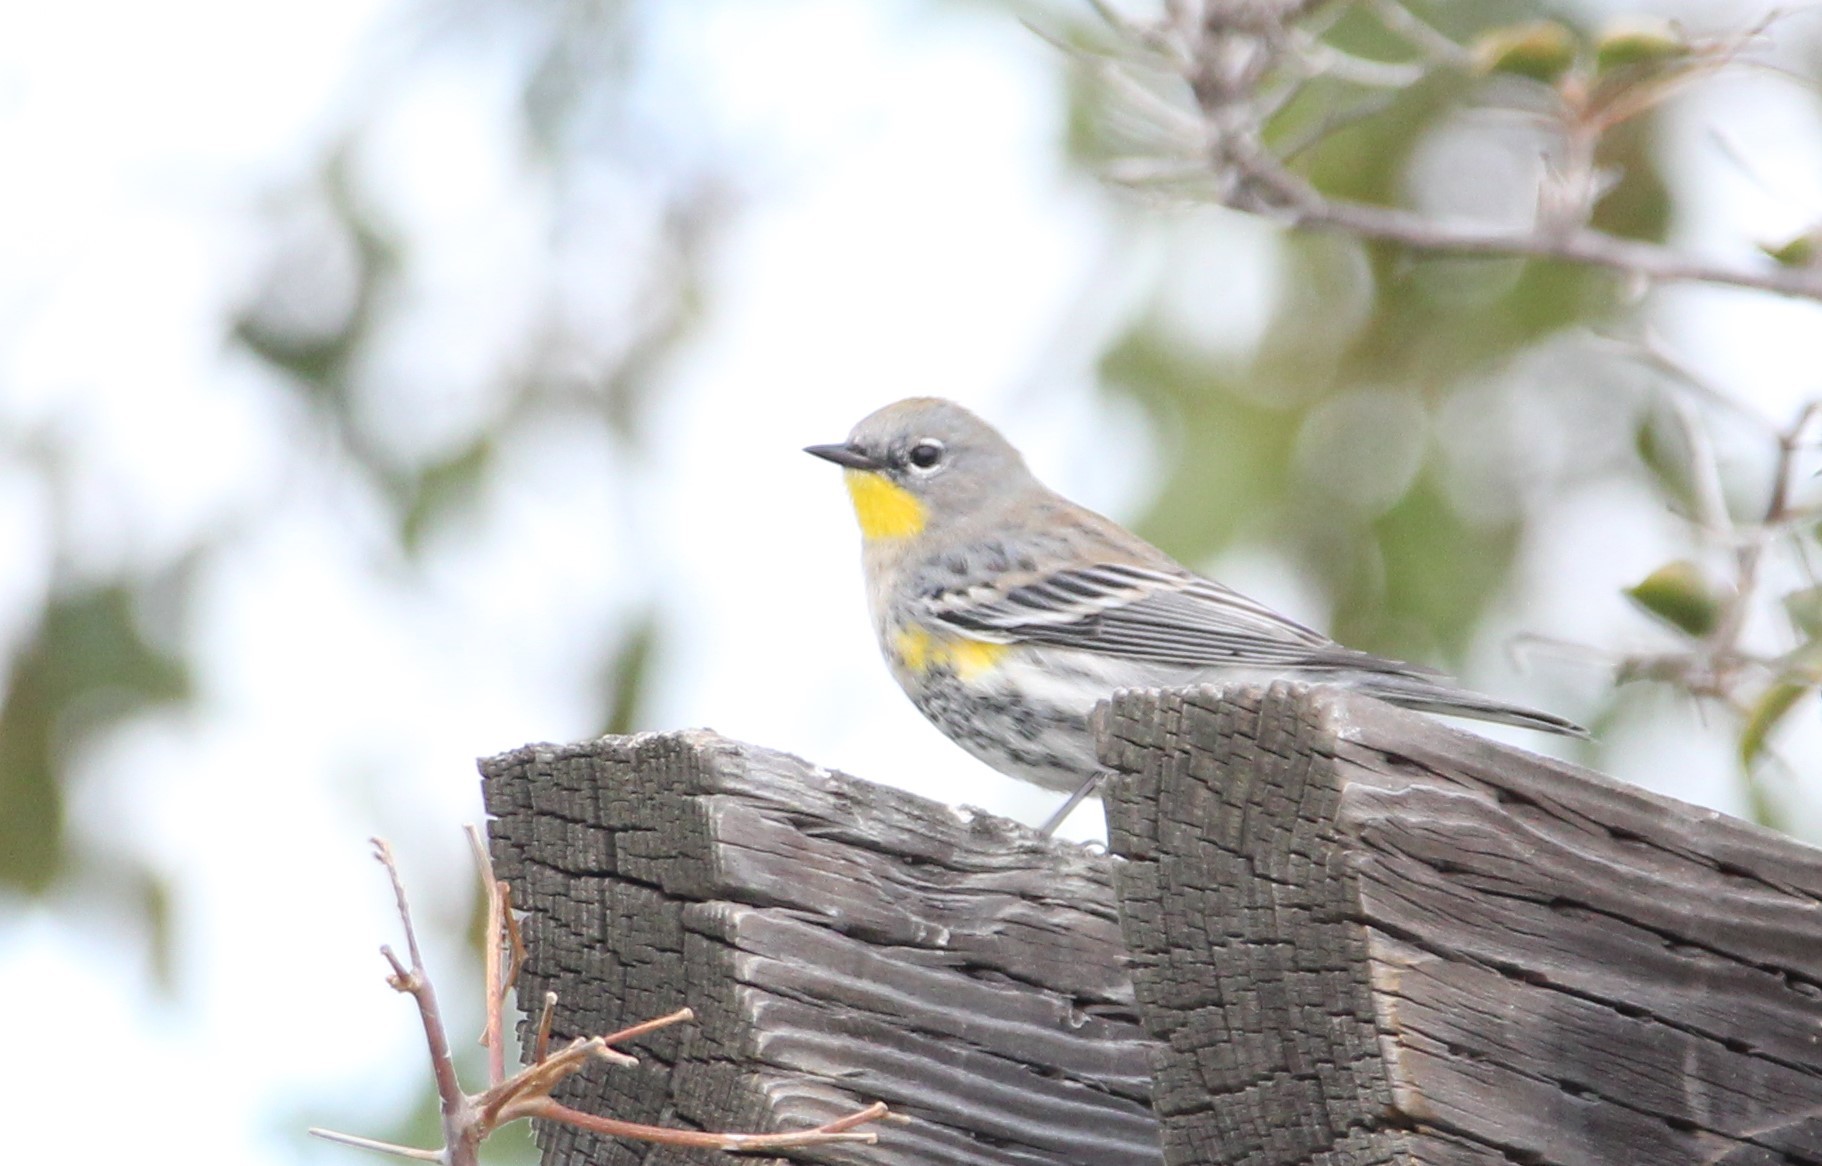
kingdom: Animalia
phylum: Chordata
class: Aves
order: Passeriformes
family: Parulidae
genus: Setophaga
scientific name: Setophaga auduboni
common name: Audubon's warbler
